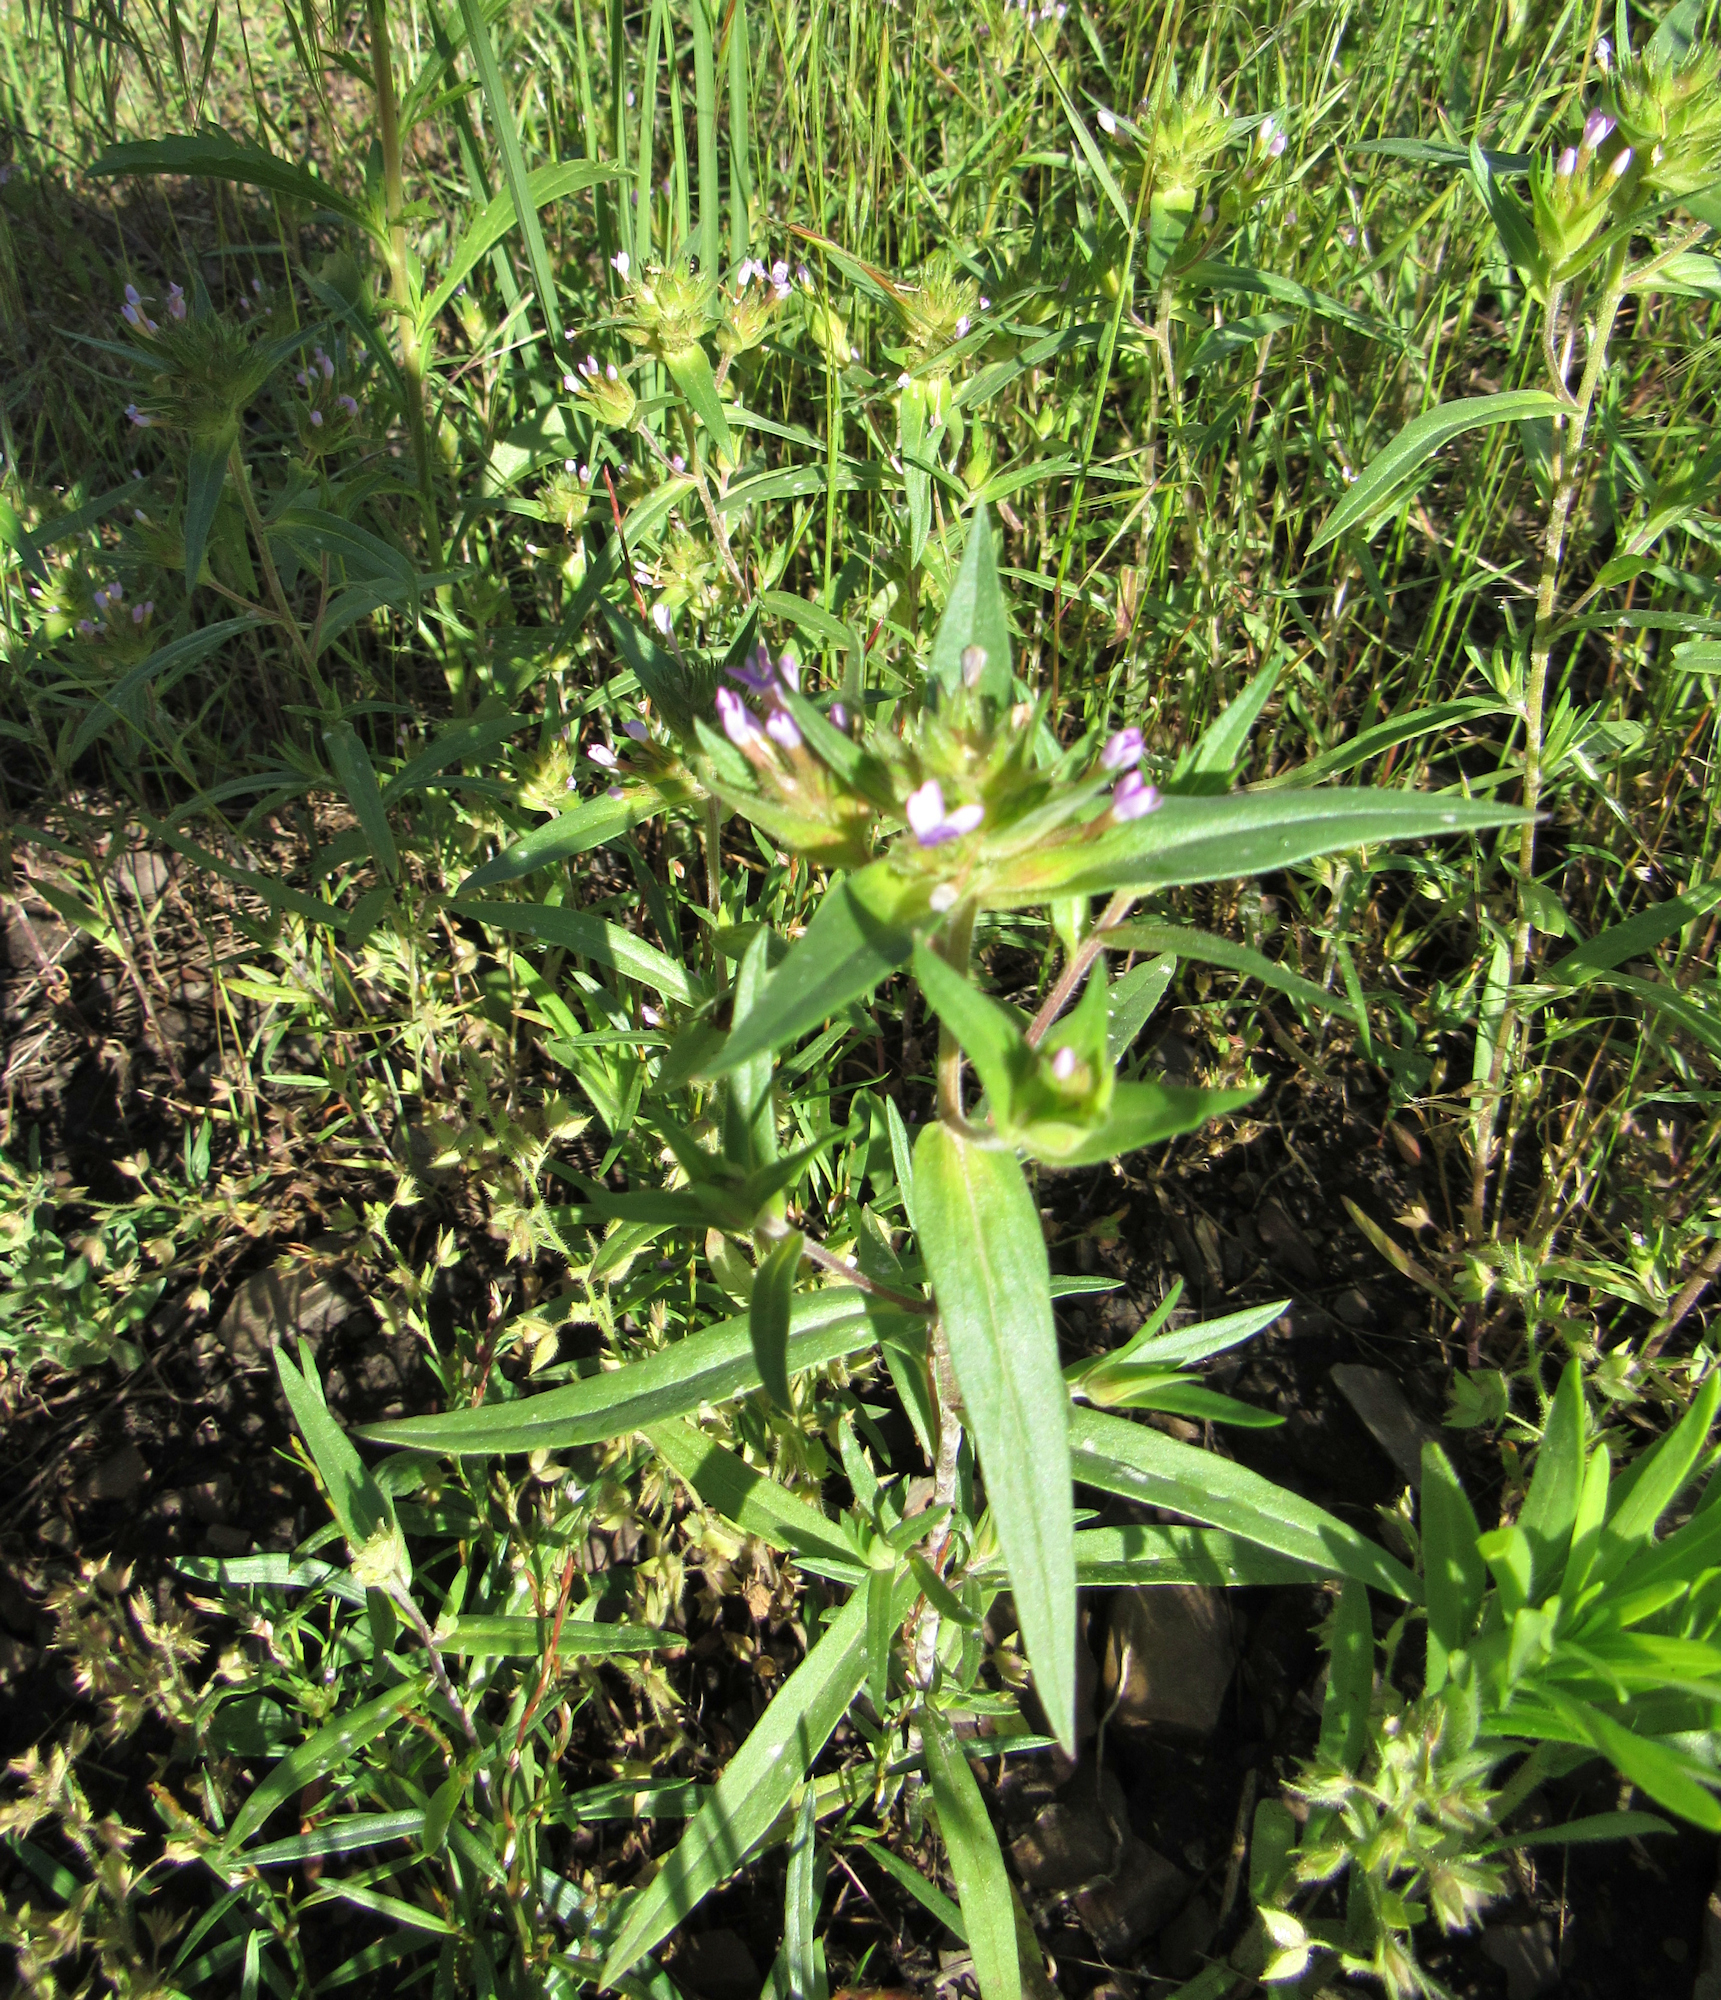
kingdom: Plantae
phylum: Tracheophyta
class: Magnoliopsida
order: Ericales
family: Polemoniaceae
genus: Collomia
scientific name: Collomia linearis
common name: Tiny trumpet
